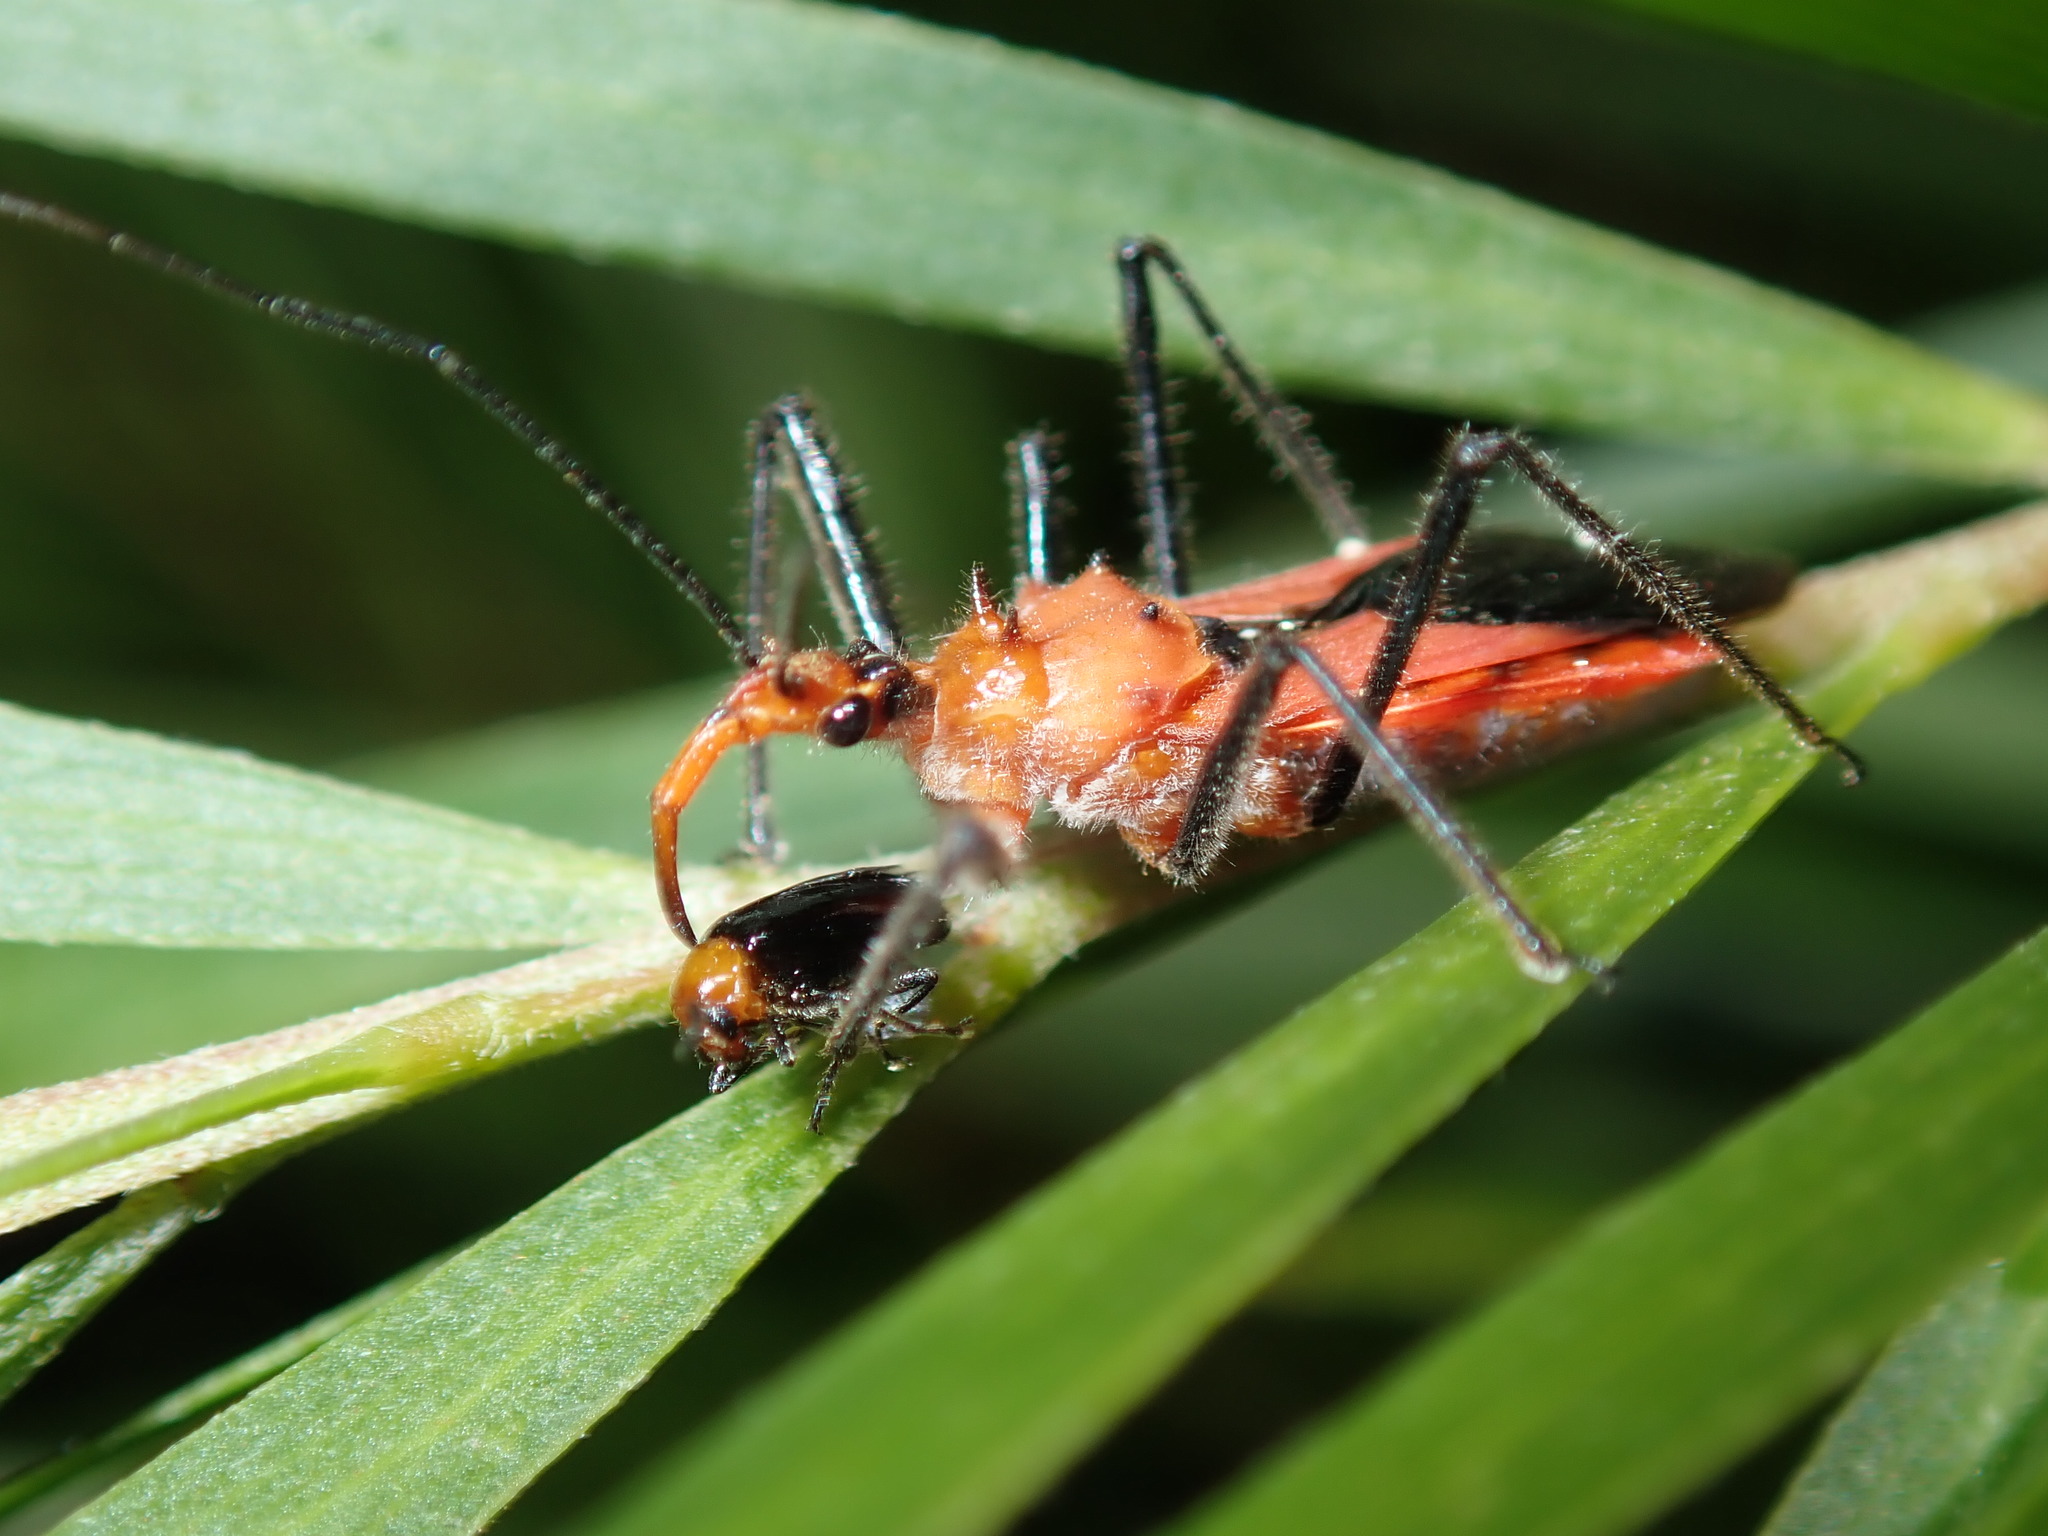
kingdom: Animalia
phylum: Arthropoda
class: Insecta
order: Hemiptera
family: Reduviidae
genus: Gminatus
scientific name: Gminatus australis
